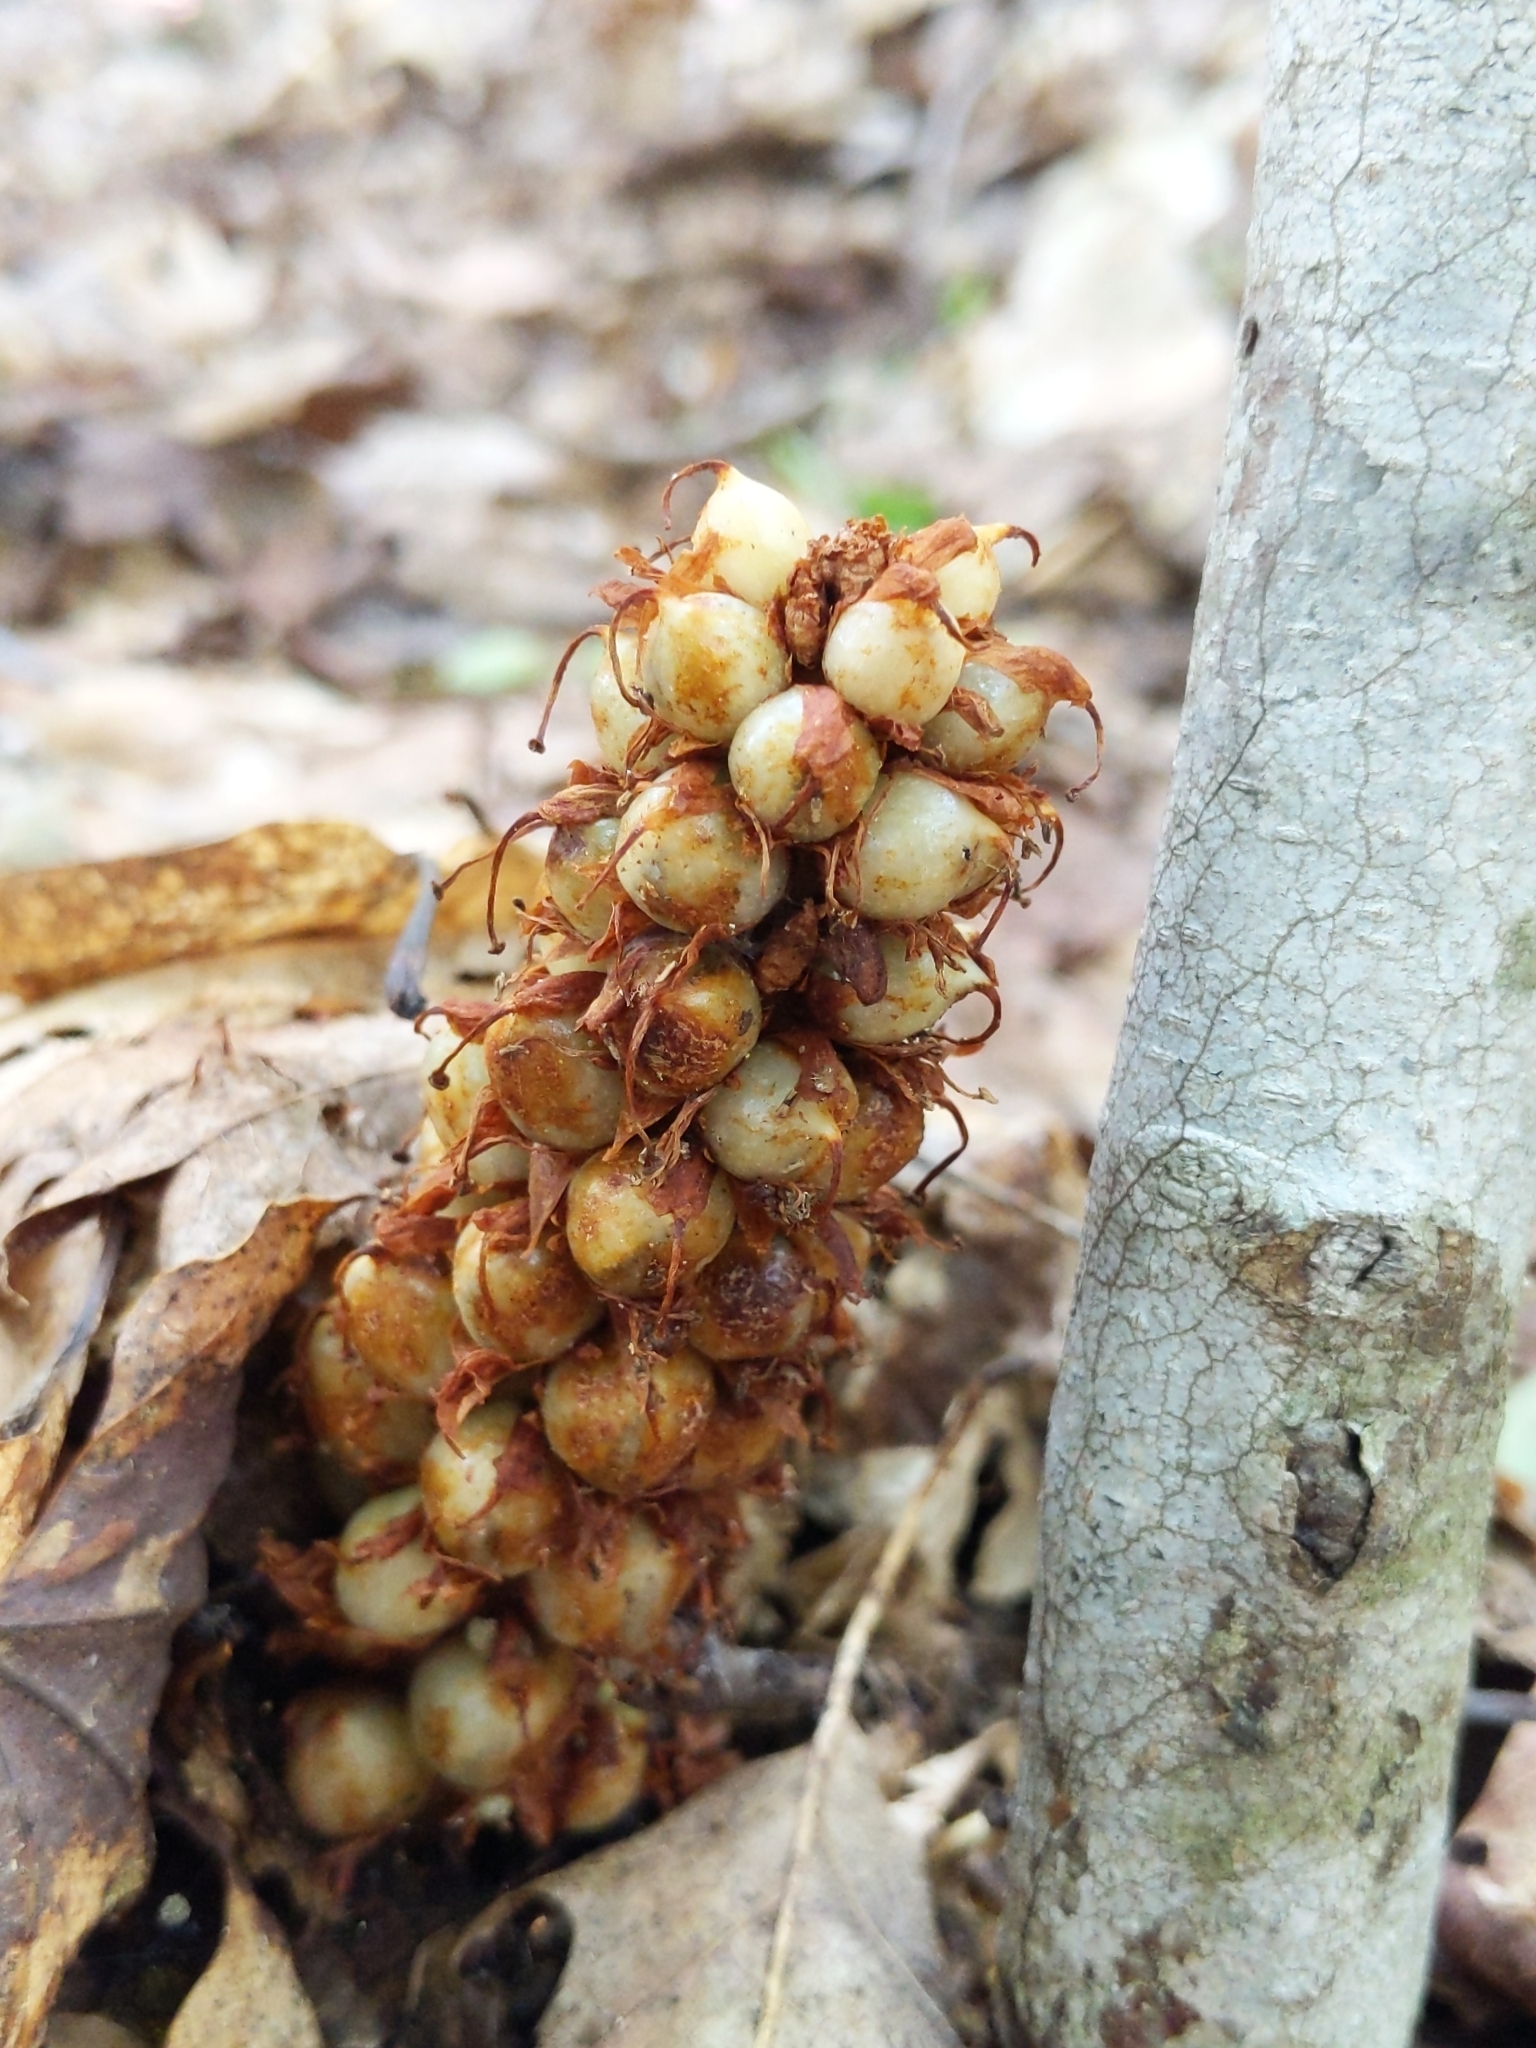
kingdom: Plantae
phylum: Tracheophyta
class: Magnoliopsida
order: Lamiales
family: Orobanchaceae
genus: Conopholis
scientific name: Conopholis americana
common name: American cancer-root
